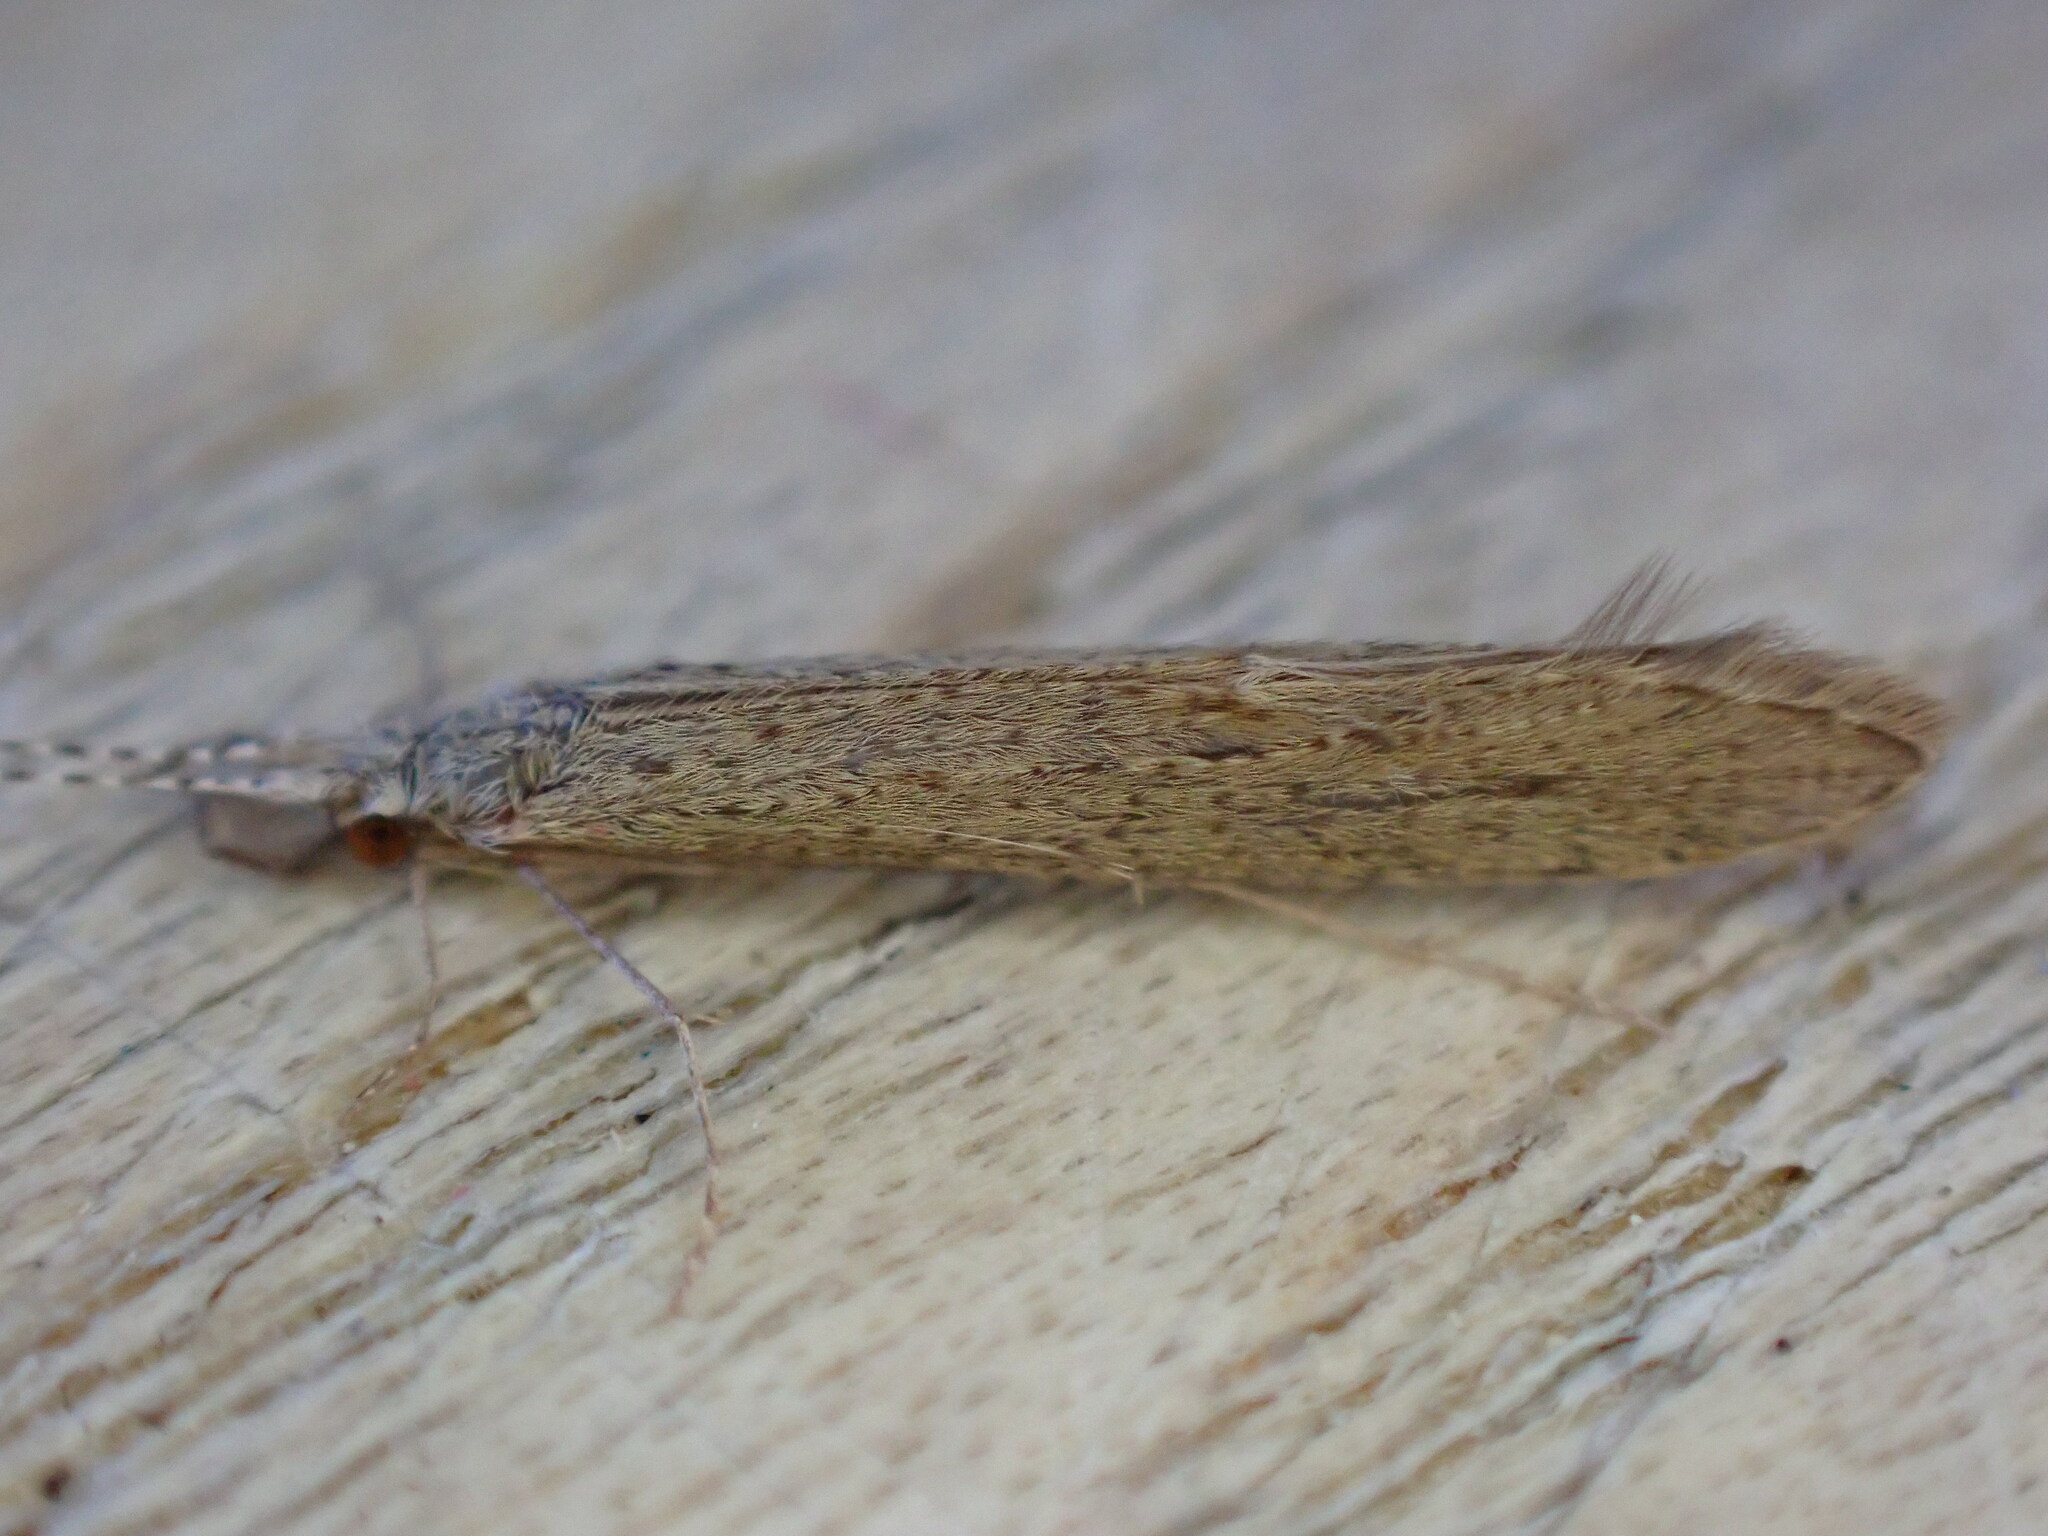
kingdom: Animalia
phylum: Arthropoda
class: Insecta
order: Trichoptera
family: Leptoceridae
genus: Leptocerus
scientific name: Leptocerus tineiformis
